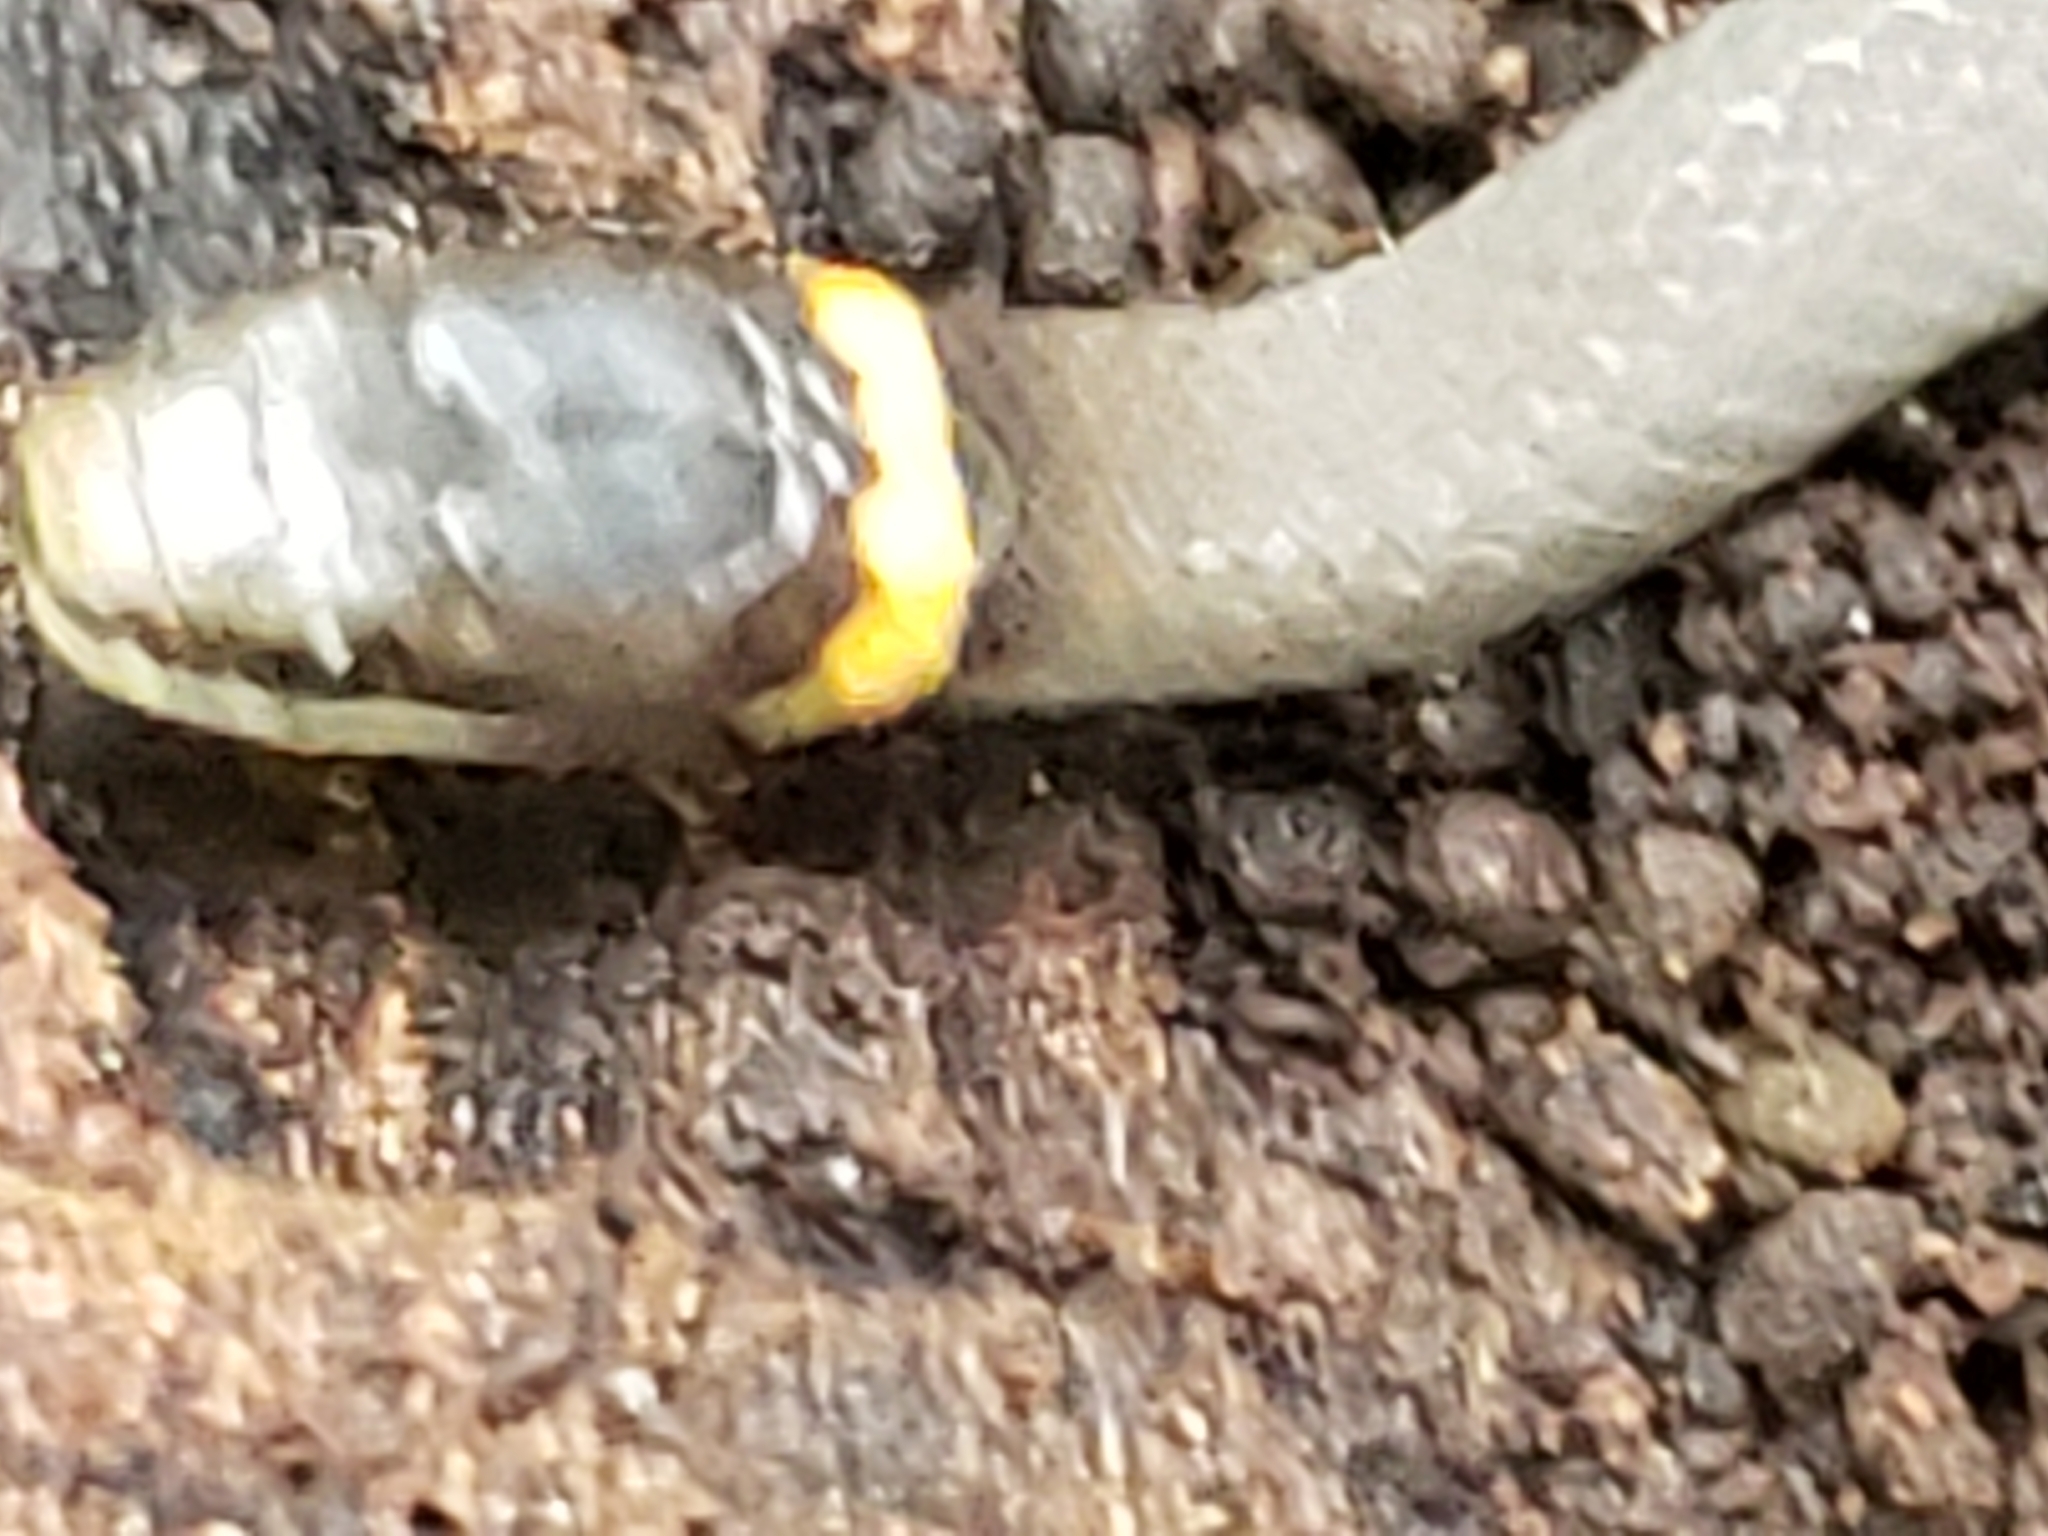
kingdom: Animalia
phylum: Chordata
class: Squamata
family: Colubridae
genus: Diadophis
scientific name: Diadophis punctatus
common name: Ringneck snake
